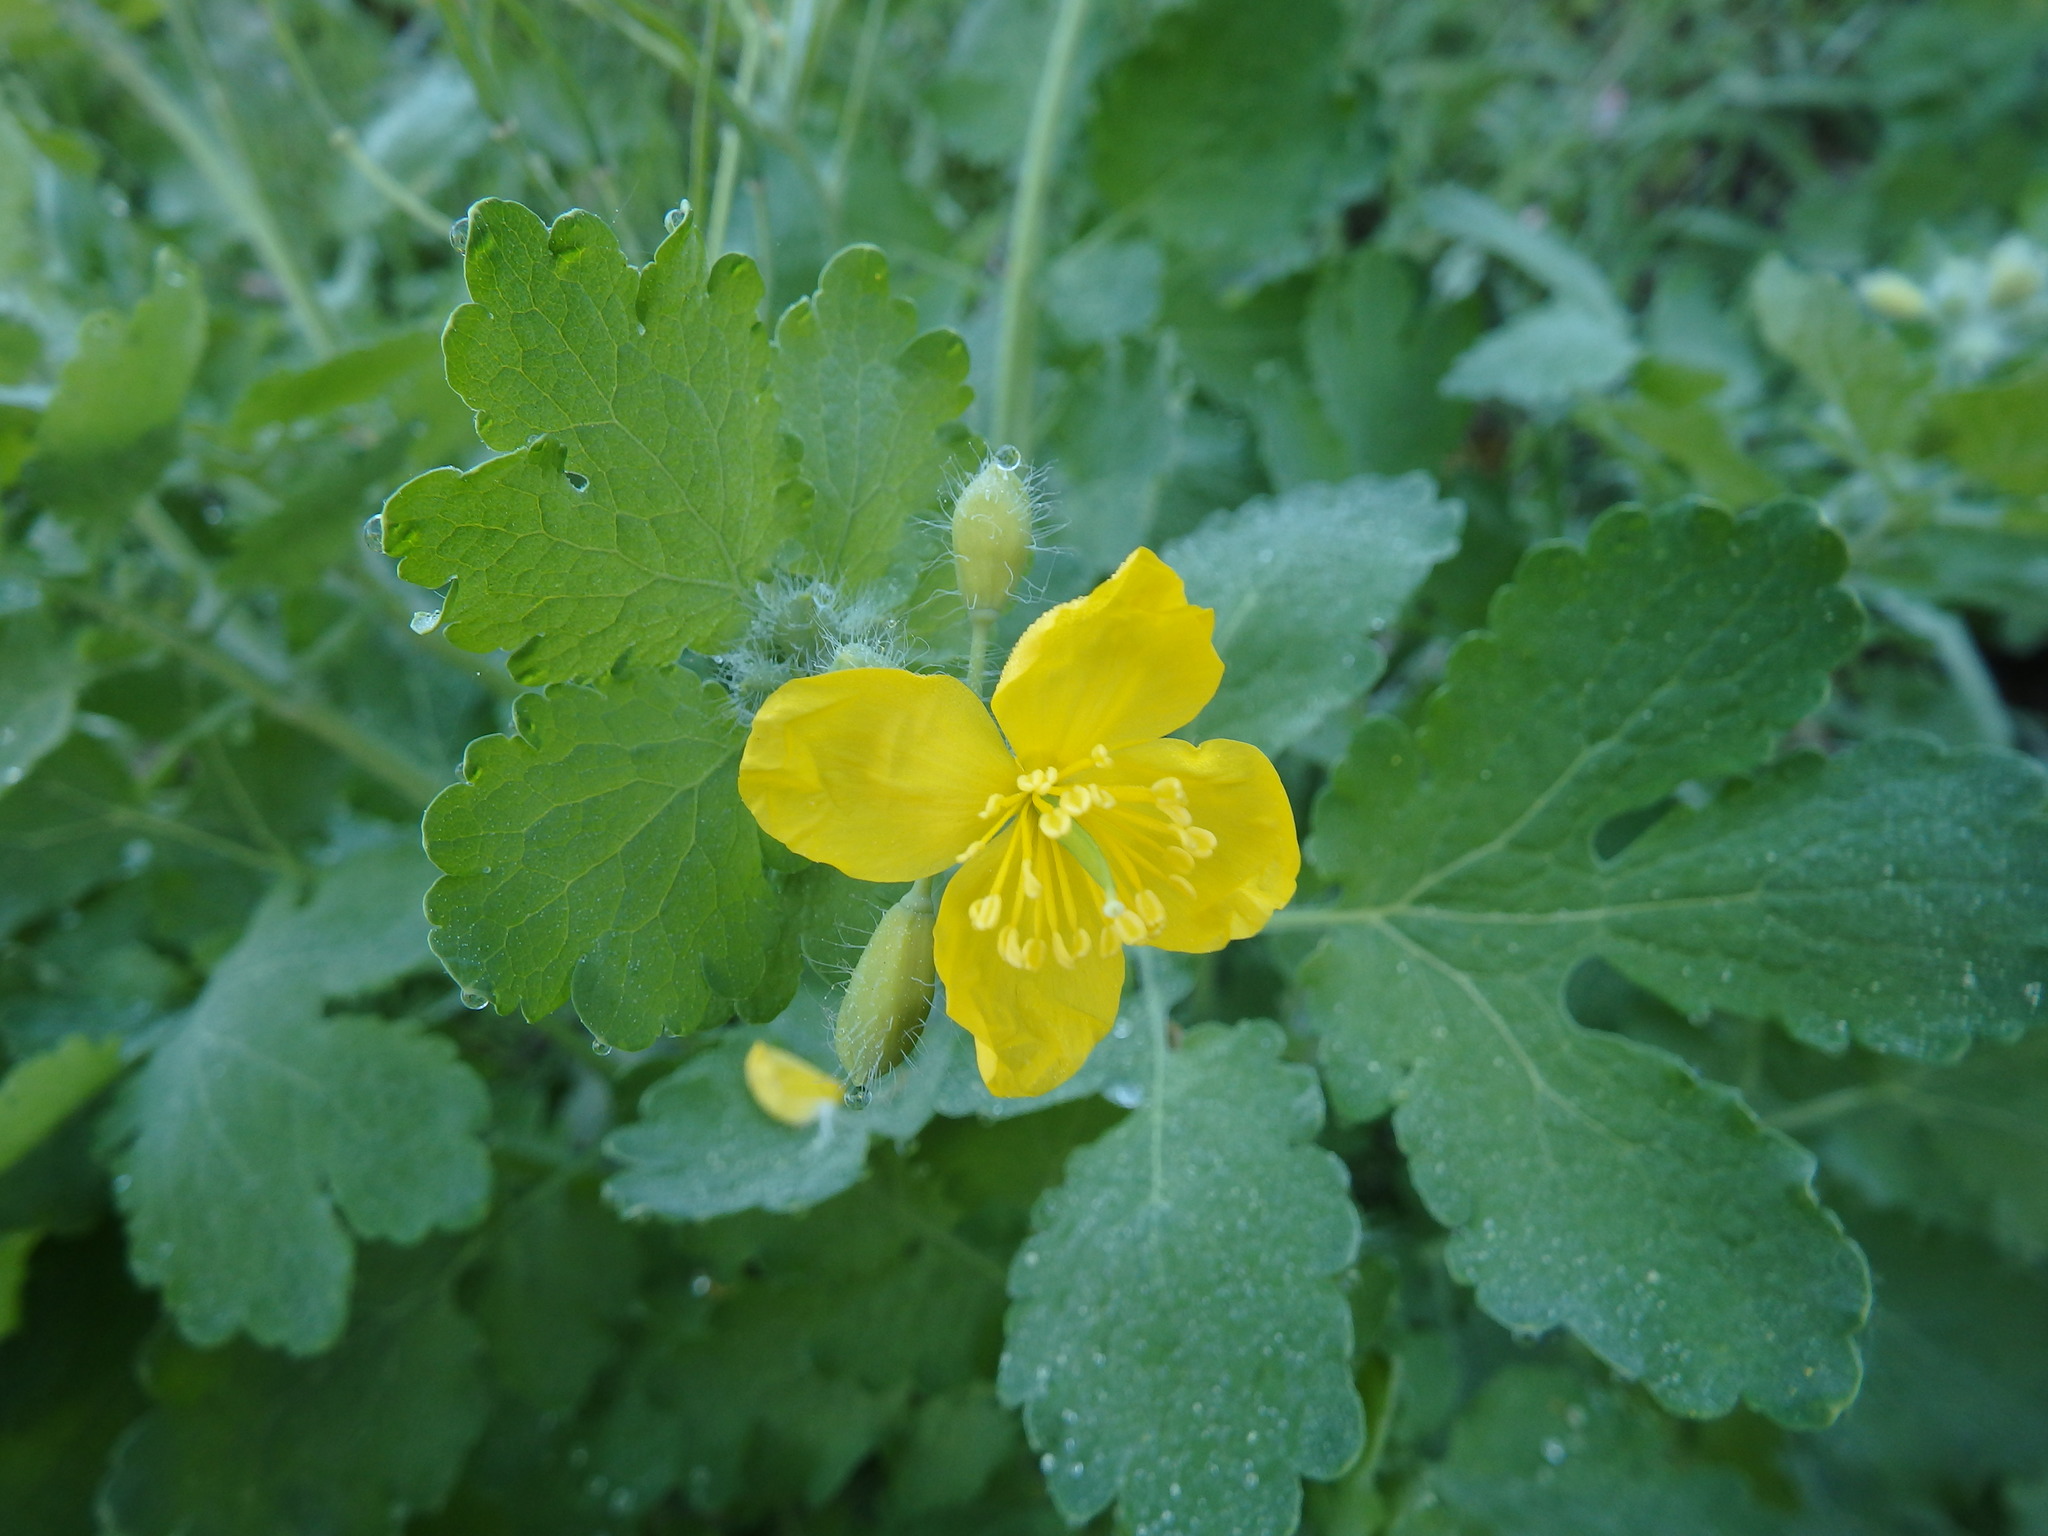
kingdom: Plantae
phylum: Tracheophyta
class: Magnoliopsida
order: Ranunculales
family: Papaveraceae
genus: Chelidonium
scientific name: Chelidonium majus
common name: Greater celandine
